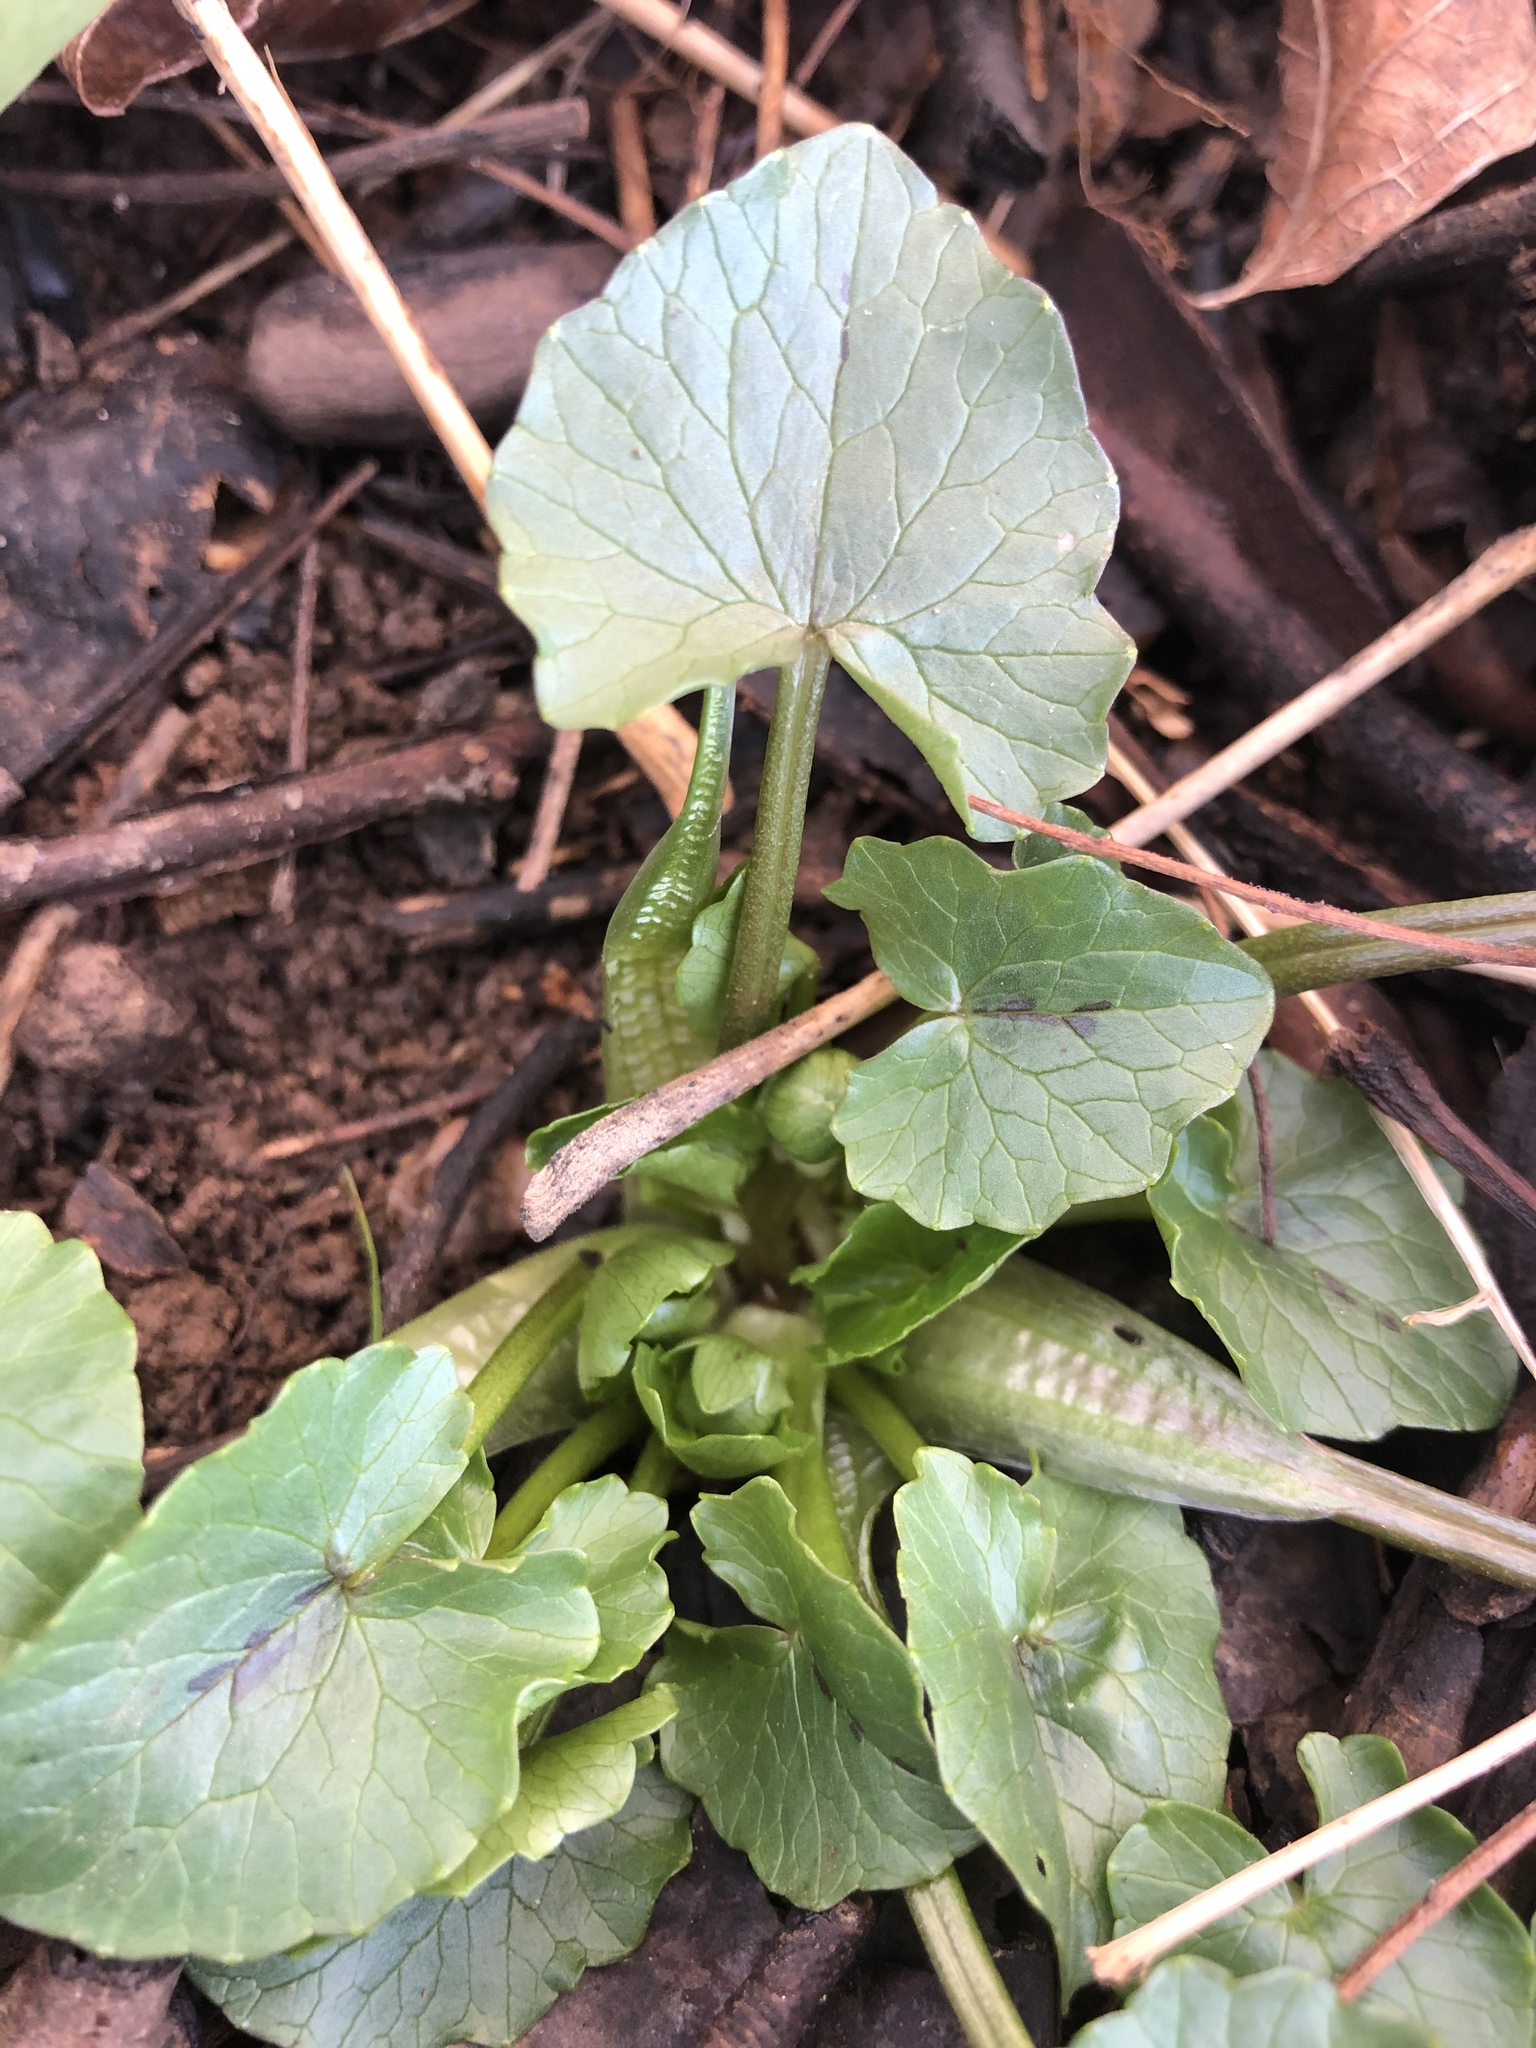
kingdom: Plantae
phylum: Tracheophyta
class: Magnoliopsida
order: Ranunculales
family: Ranunculaceae
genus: Ficaria
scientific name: Ficaria verna
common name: Lesser celandine
